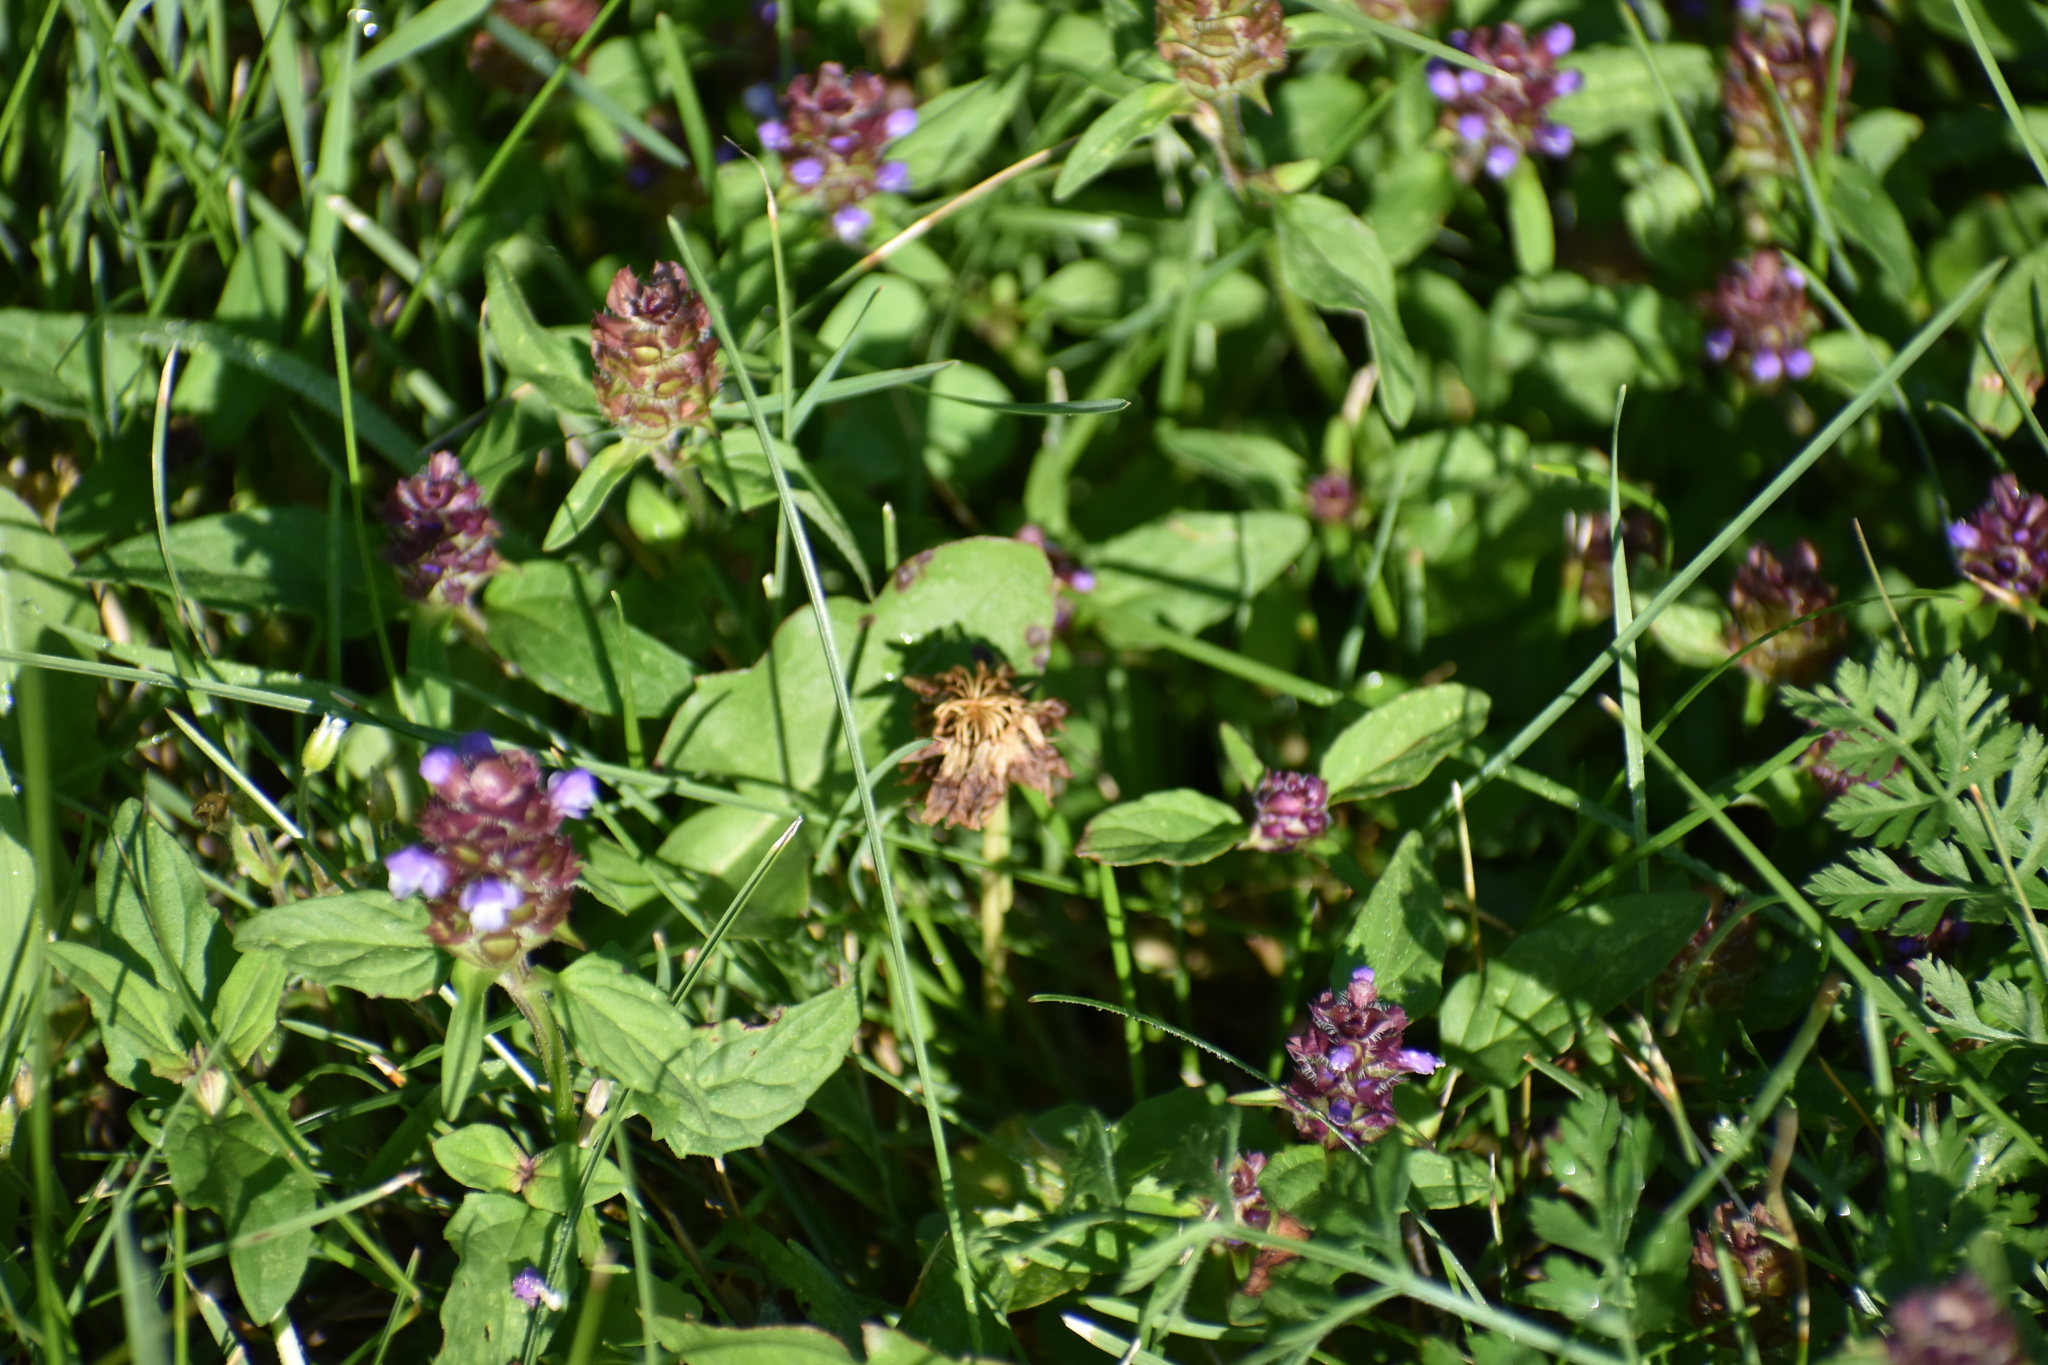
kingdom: Plantae
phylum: Tracheophyta
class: Magnoliopsida
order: Lamiales
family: Lamiaceae
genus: Prunella
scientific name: Prunella vulgaris
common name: Heal-all
